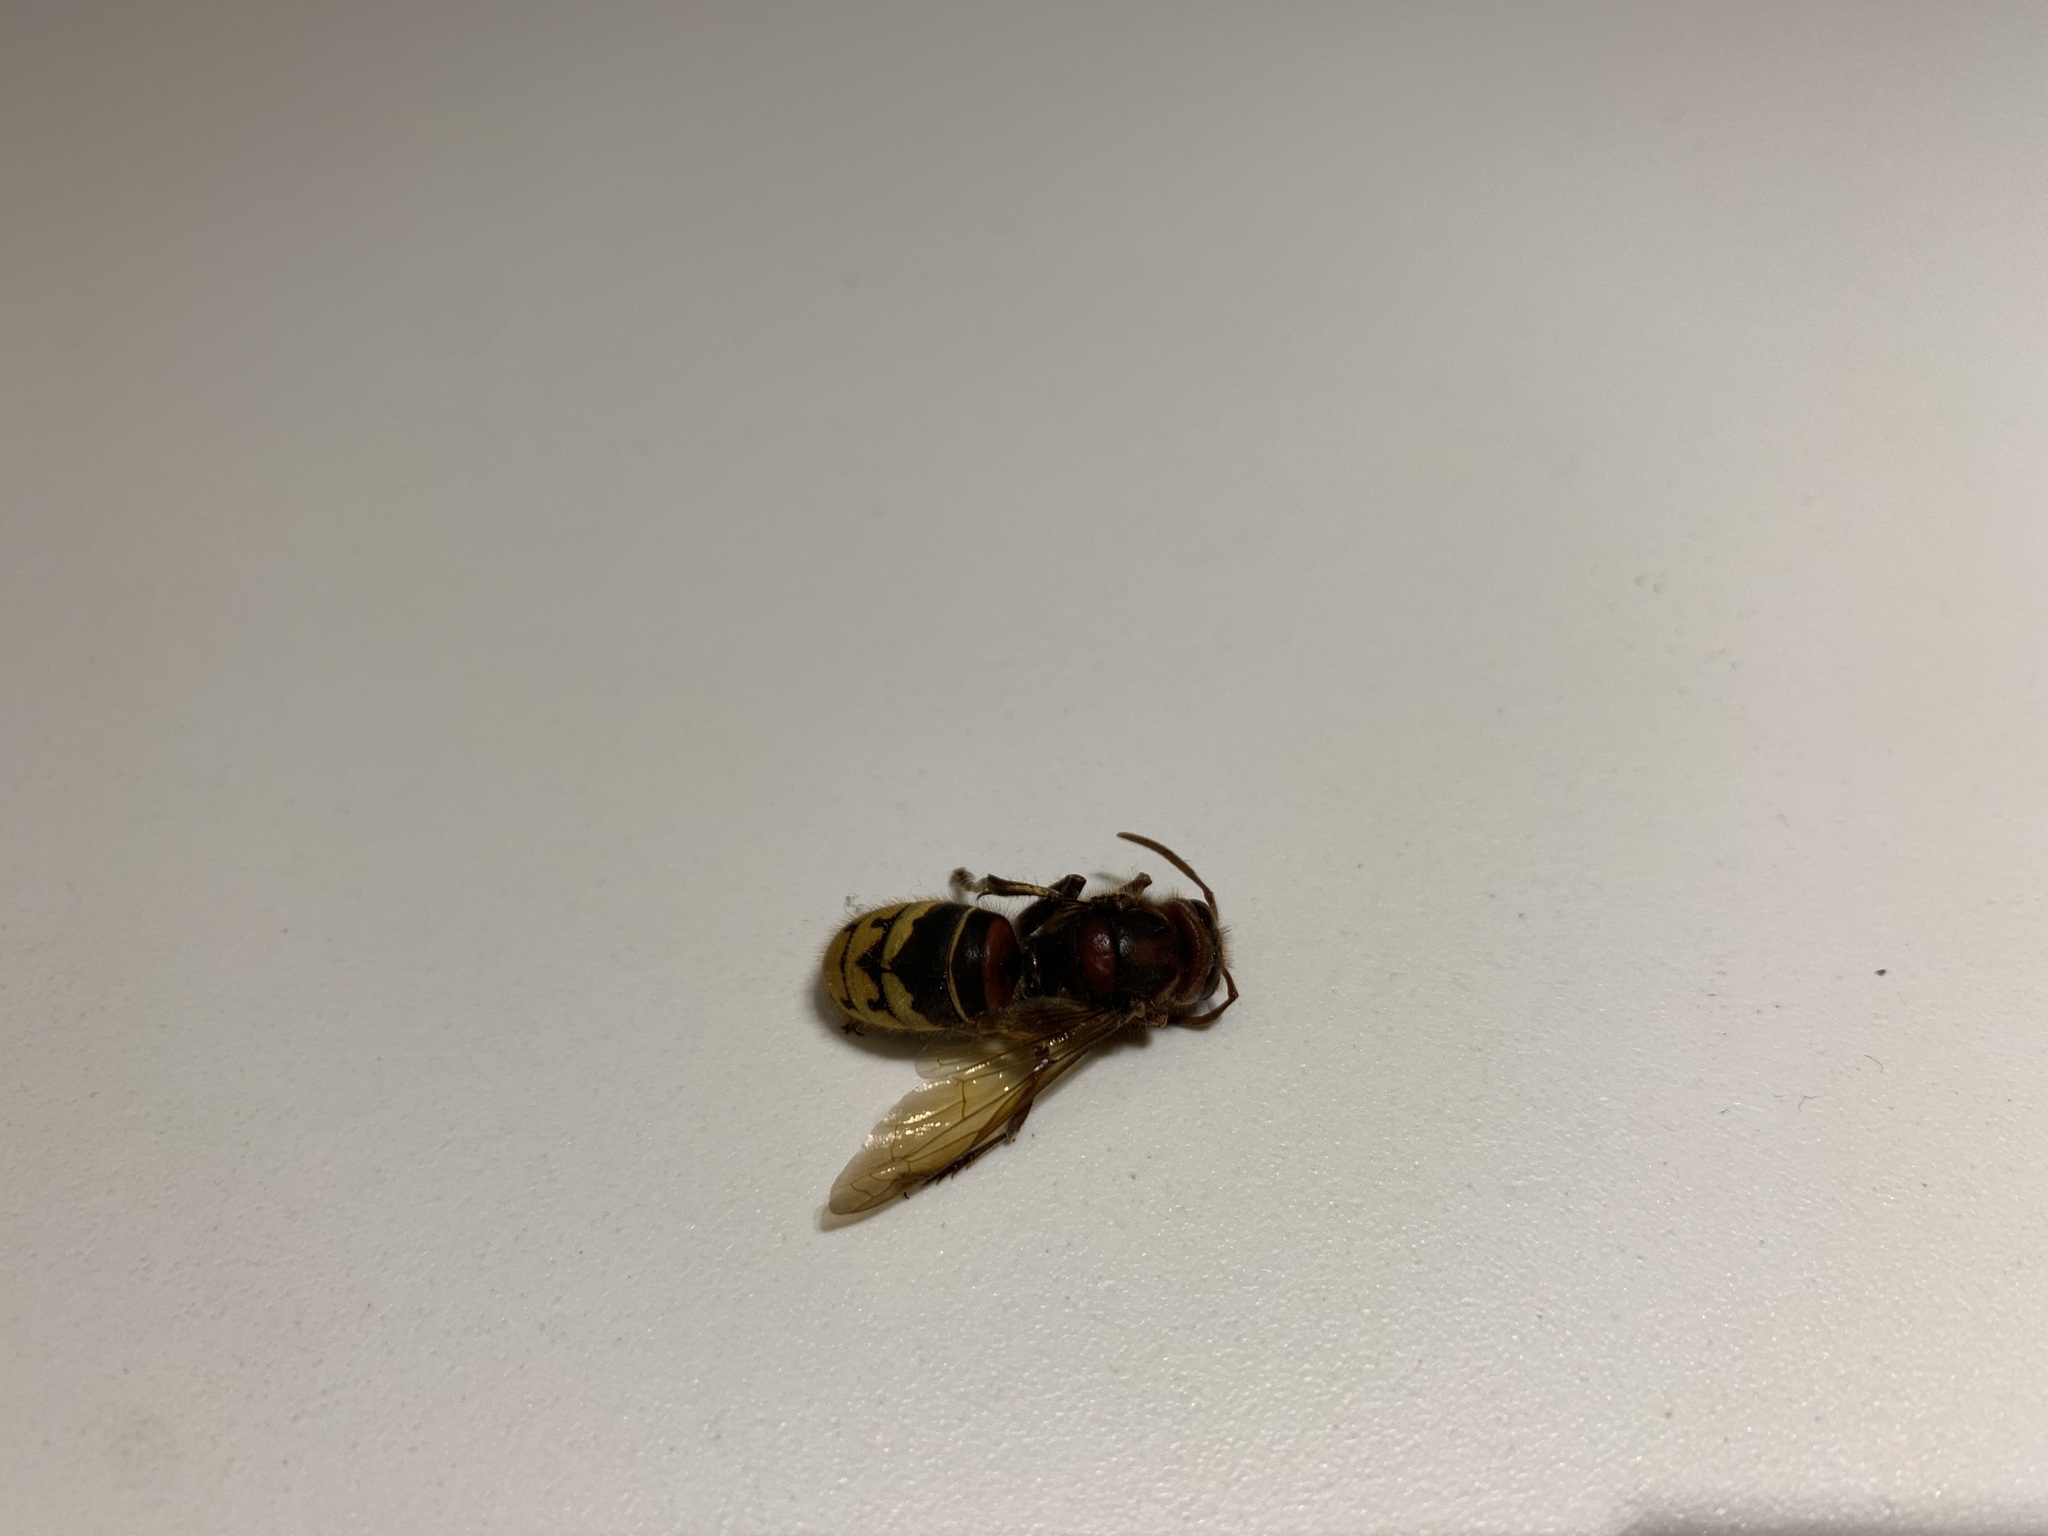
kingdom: Animalia
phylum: Arthropoda
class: Insecta
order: Hymenoptera
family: Vespidae
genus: Vespa
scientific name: Vespa crabro
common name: Hornet
